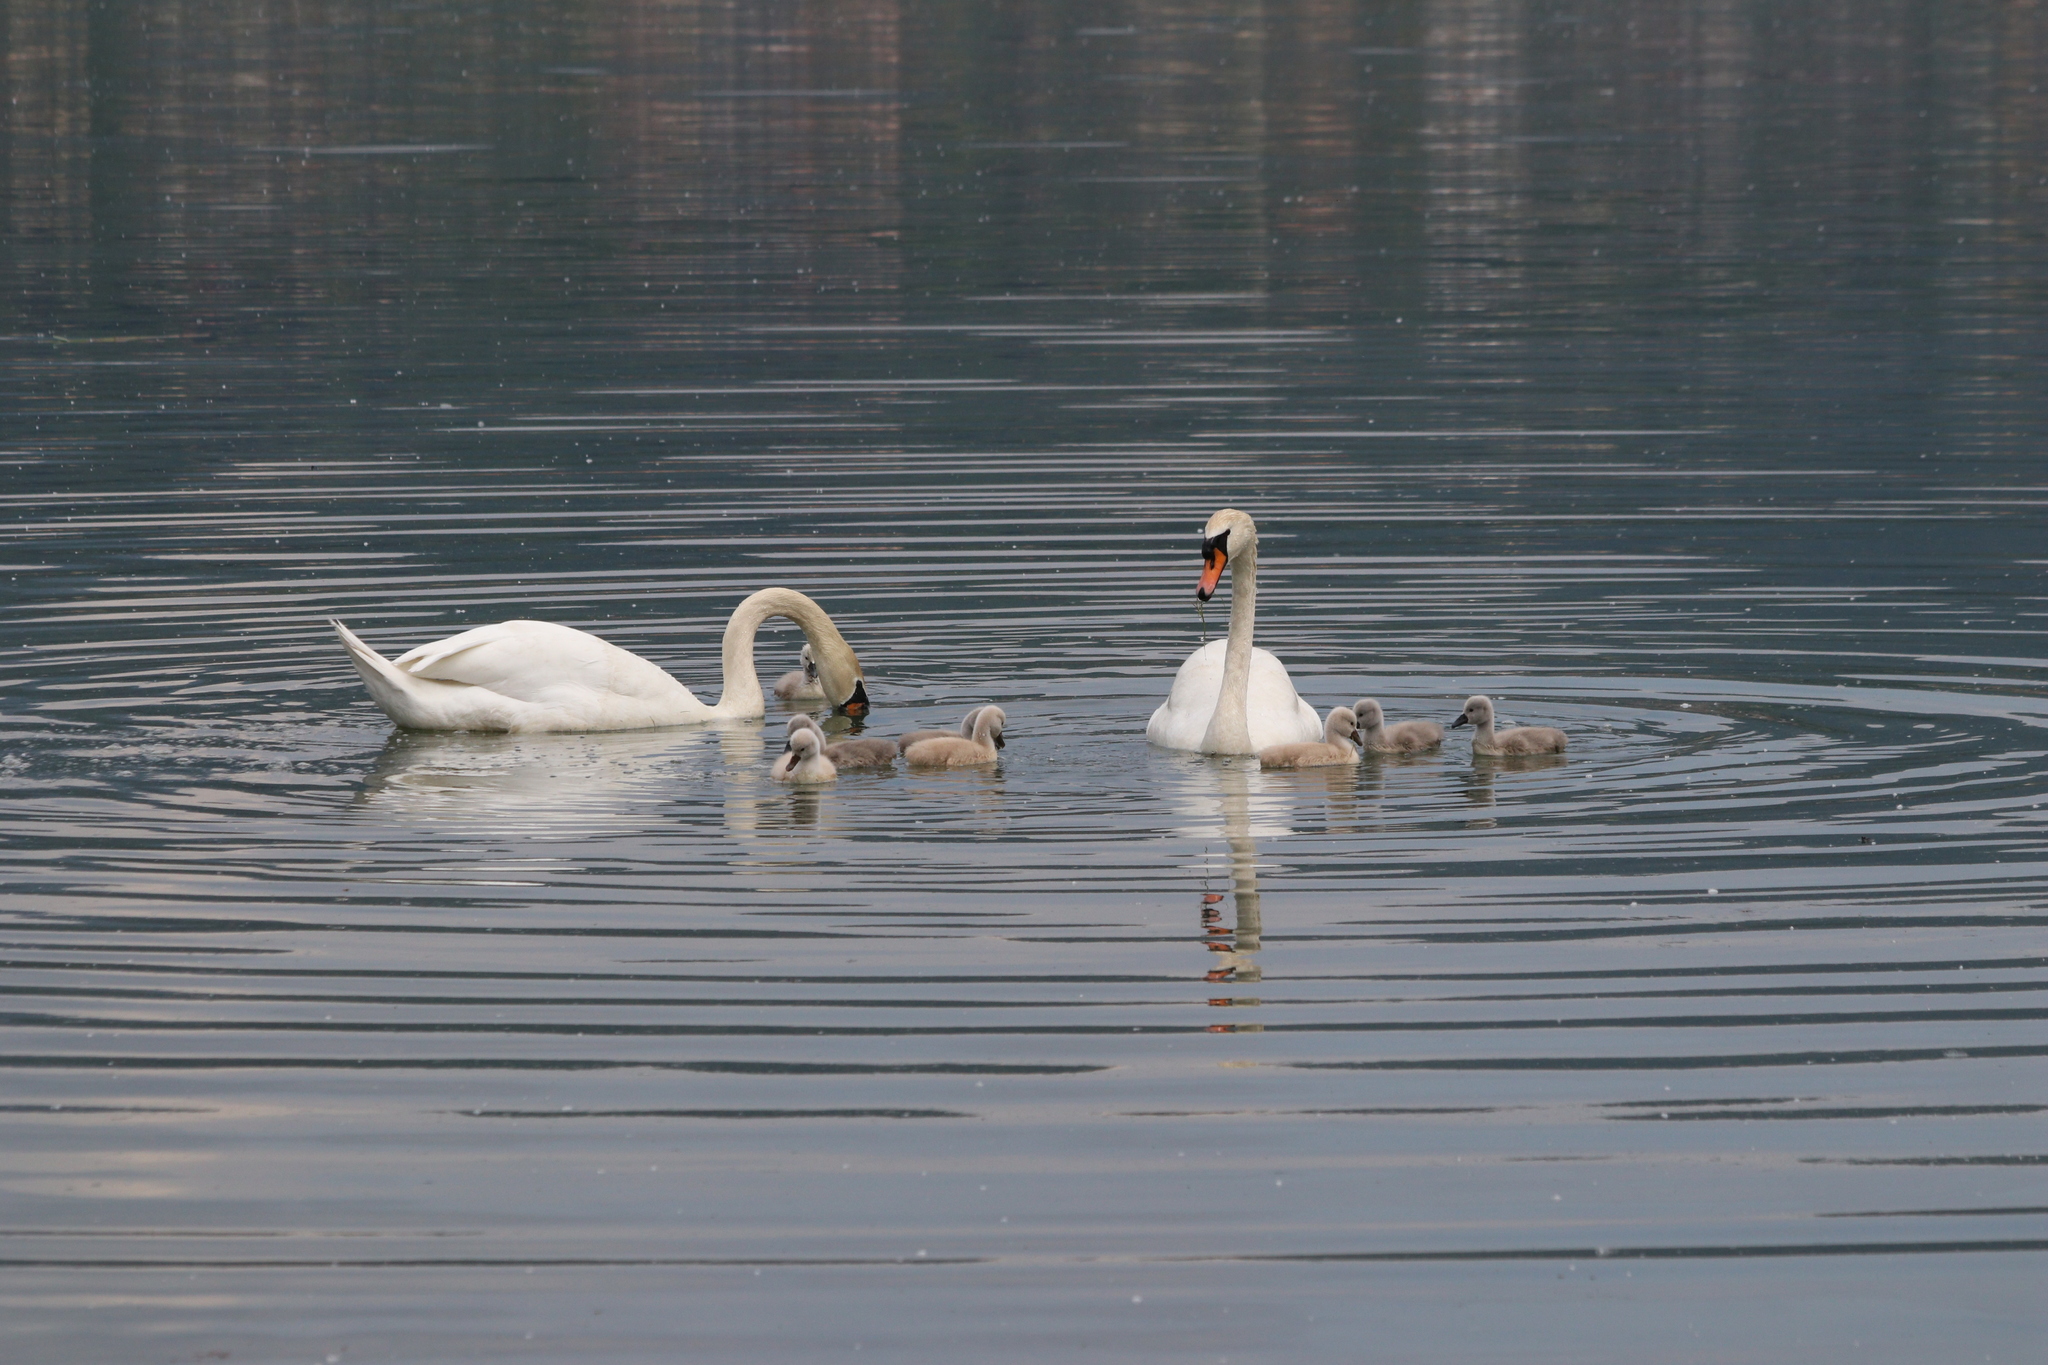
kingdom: Animalia
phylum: Chordata
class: Aves
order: Anseriformes
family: Anatidae
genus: Cygnus
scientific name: Cygnus olor
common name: Mute swan
